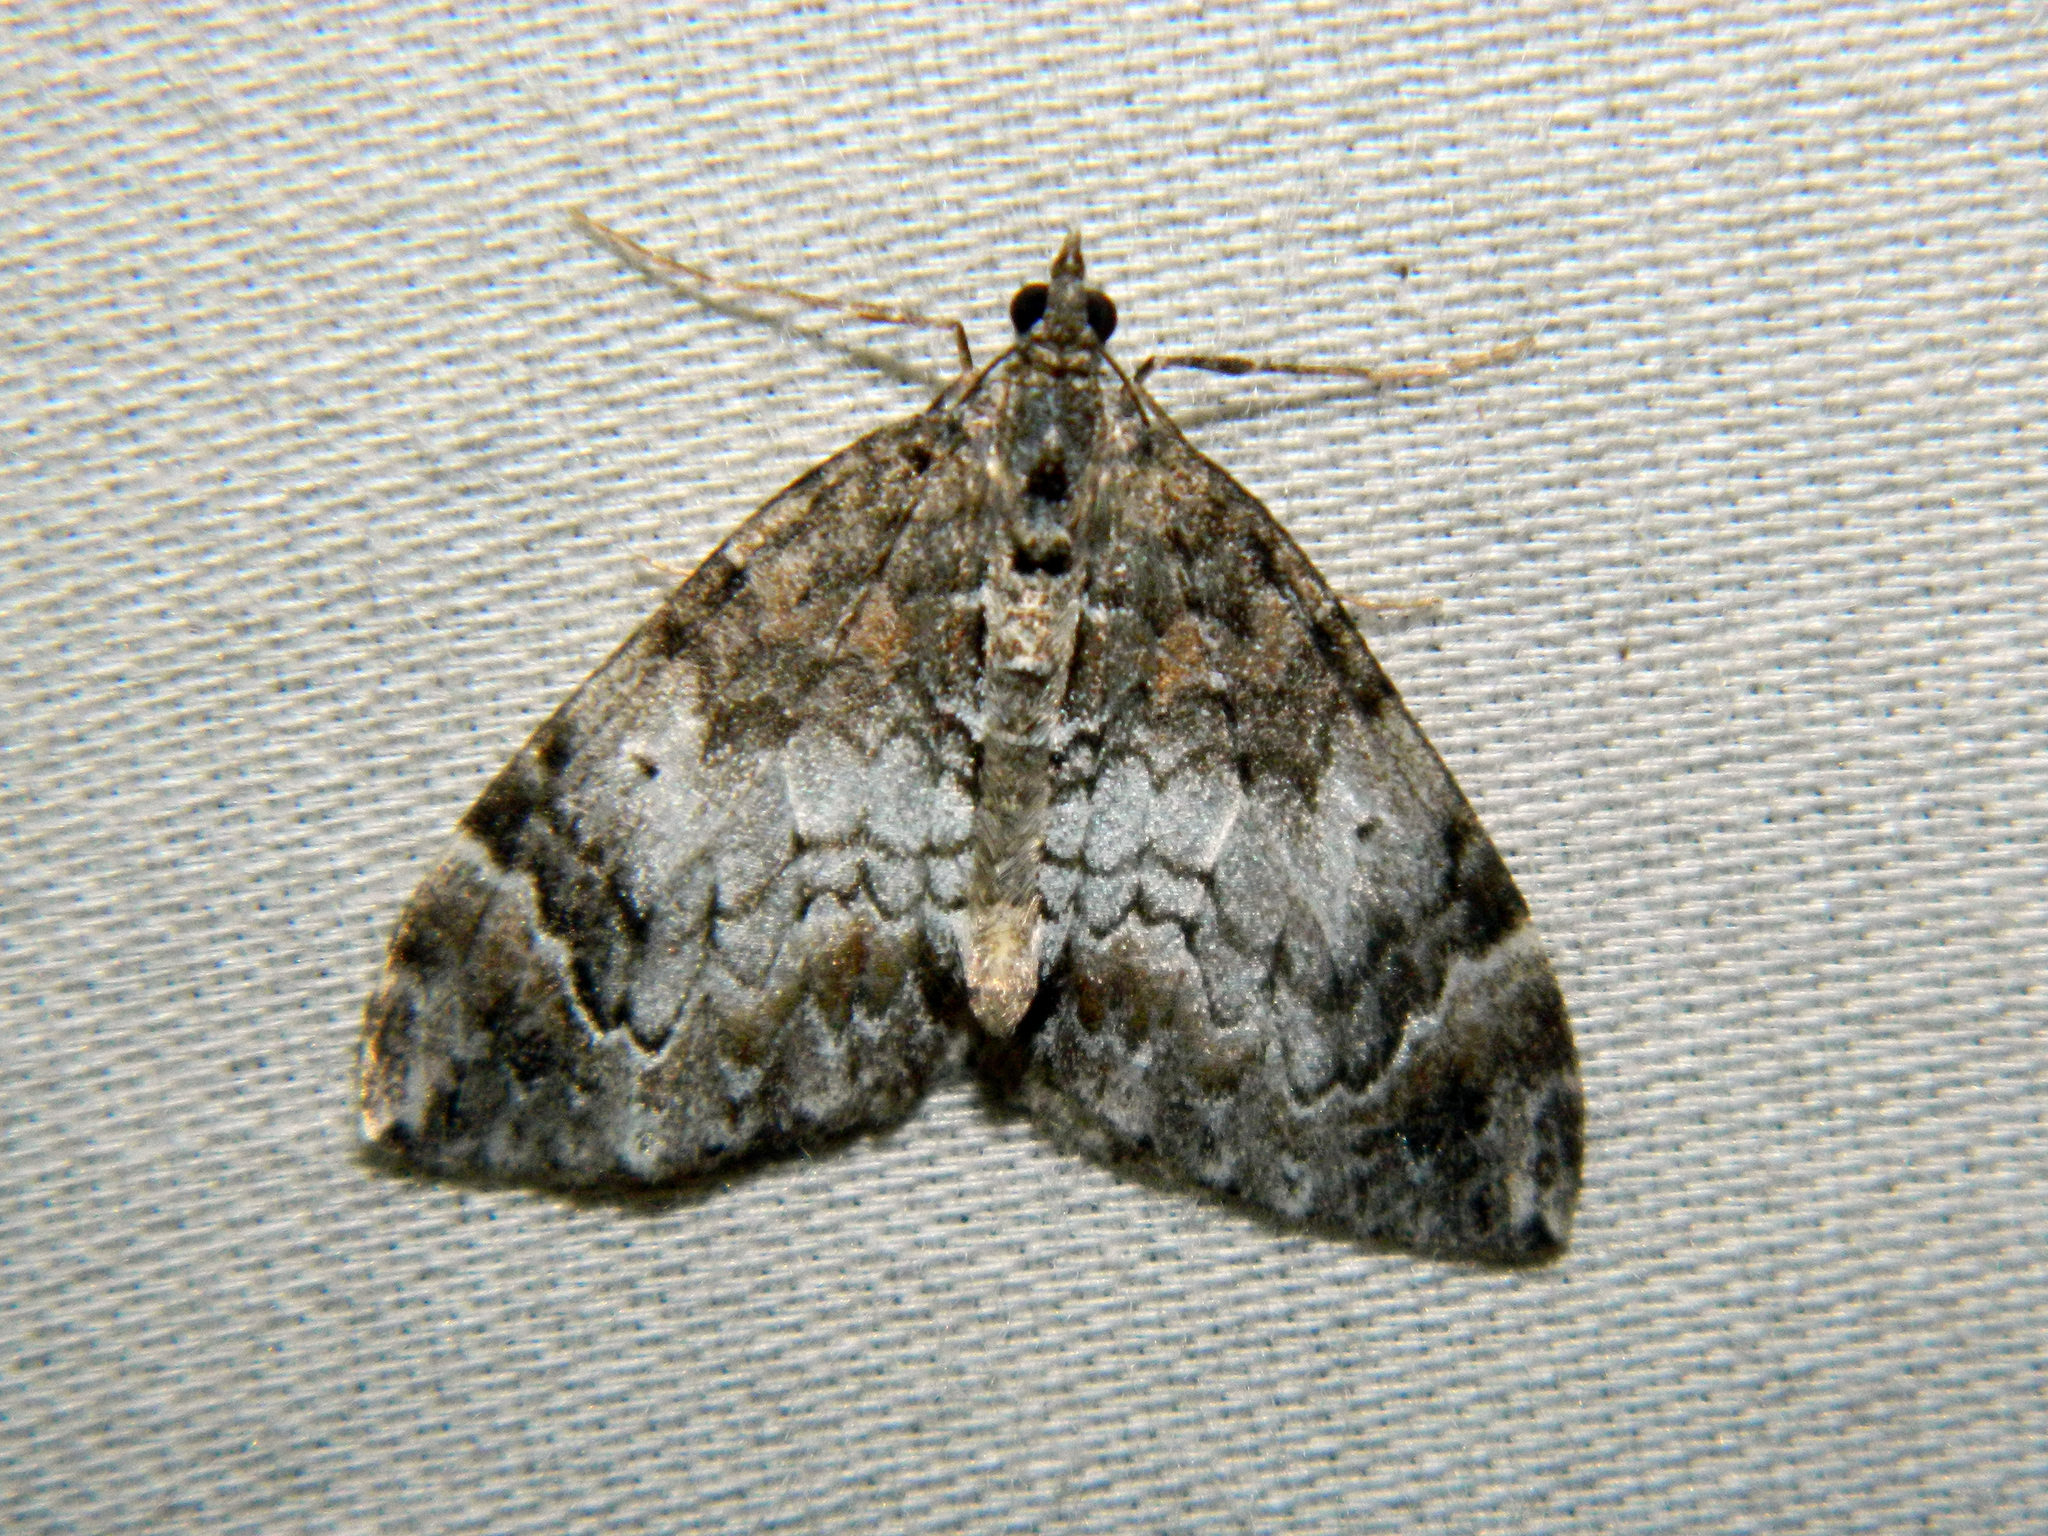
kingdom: Animalia
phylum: Arthropoda
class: Insecta
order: Lepidoptera
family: Geometridae
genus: Dysstroma
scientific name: Dysstroma citrata
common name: Dark marbled carpet
